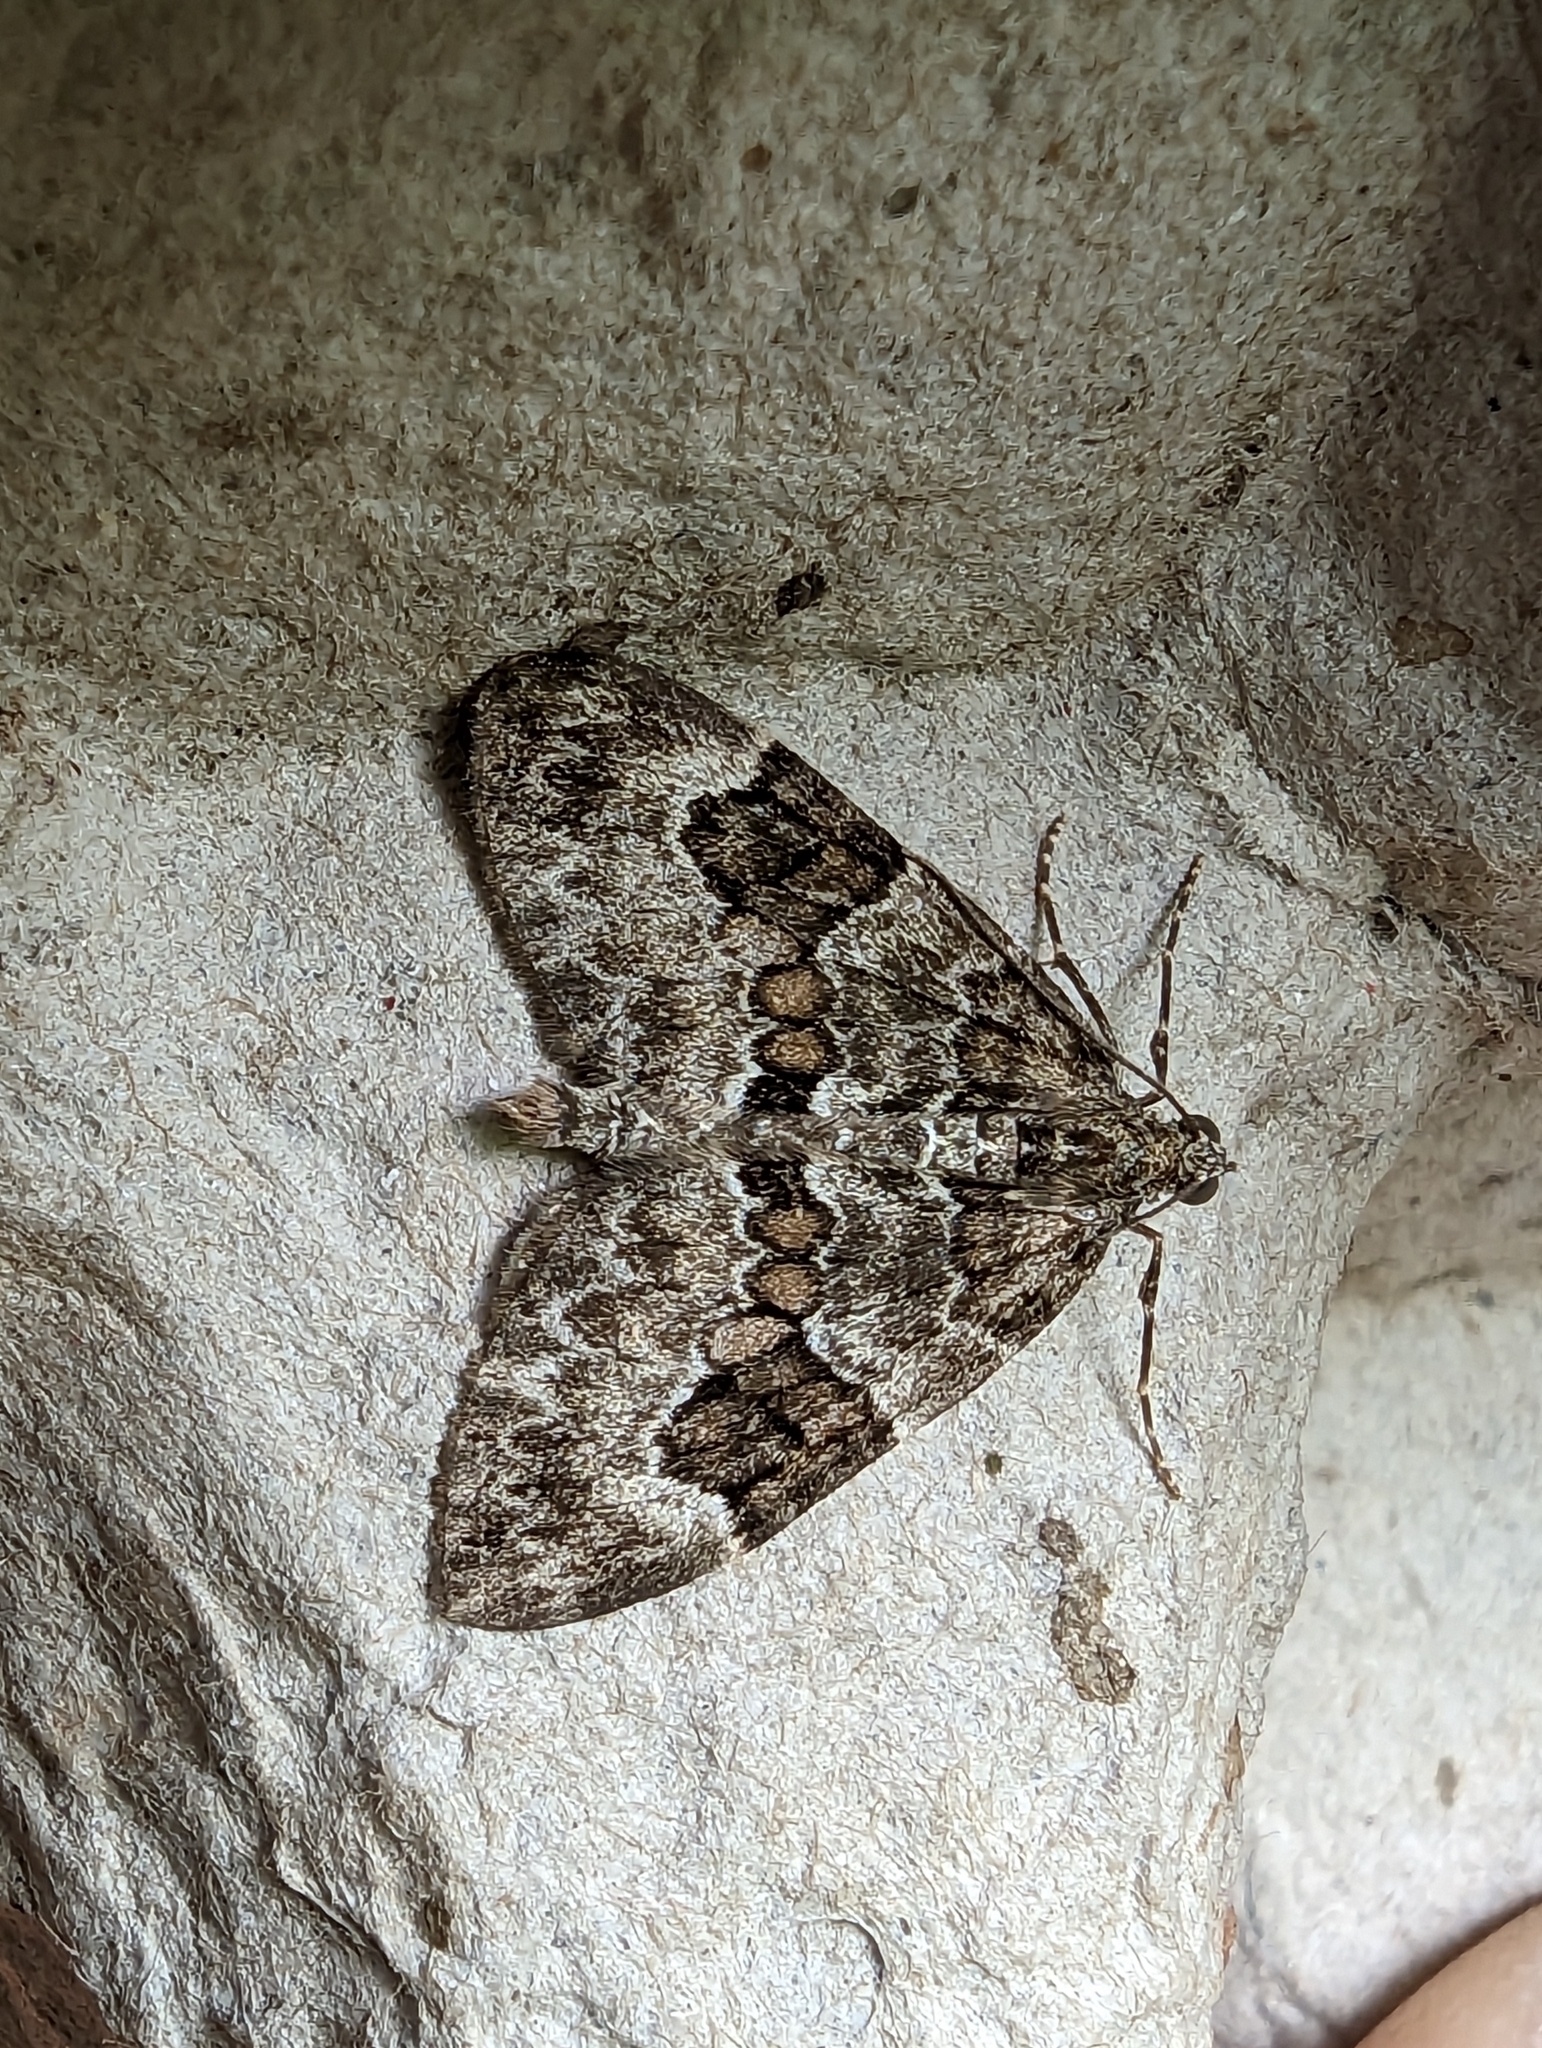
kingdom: Animalia
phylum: Arthropoda
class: Insecta
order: Lepidoptera
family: Geometridae
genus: Thera
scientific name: Thera britannica
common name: Spruce carpet
